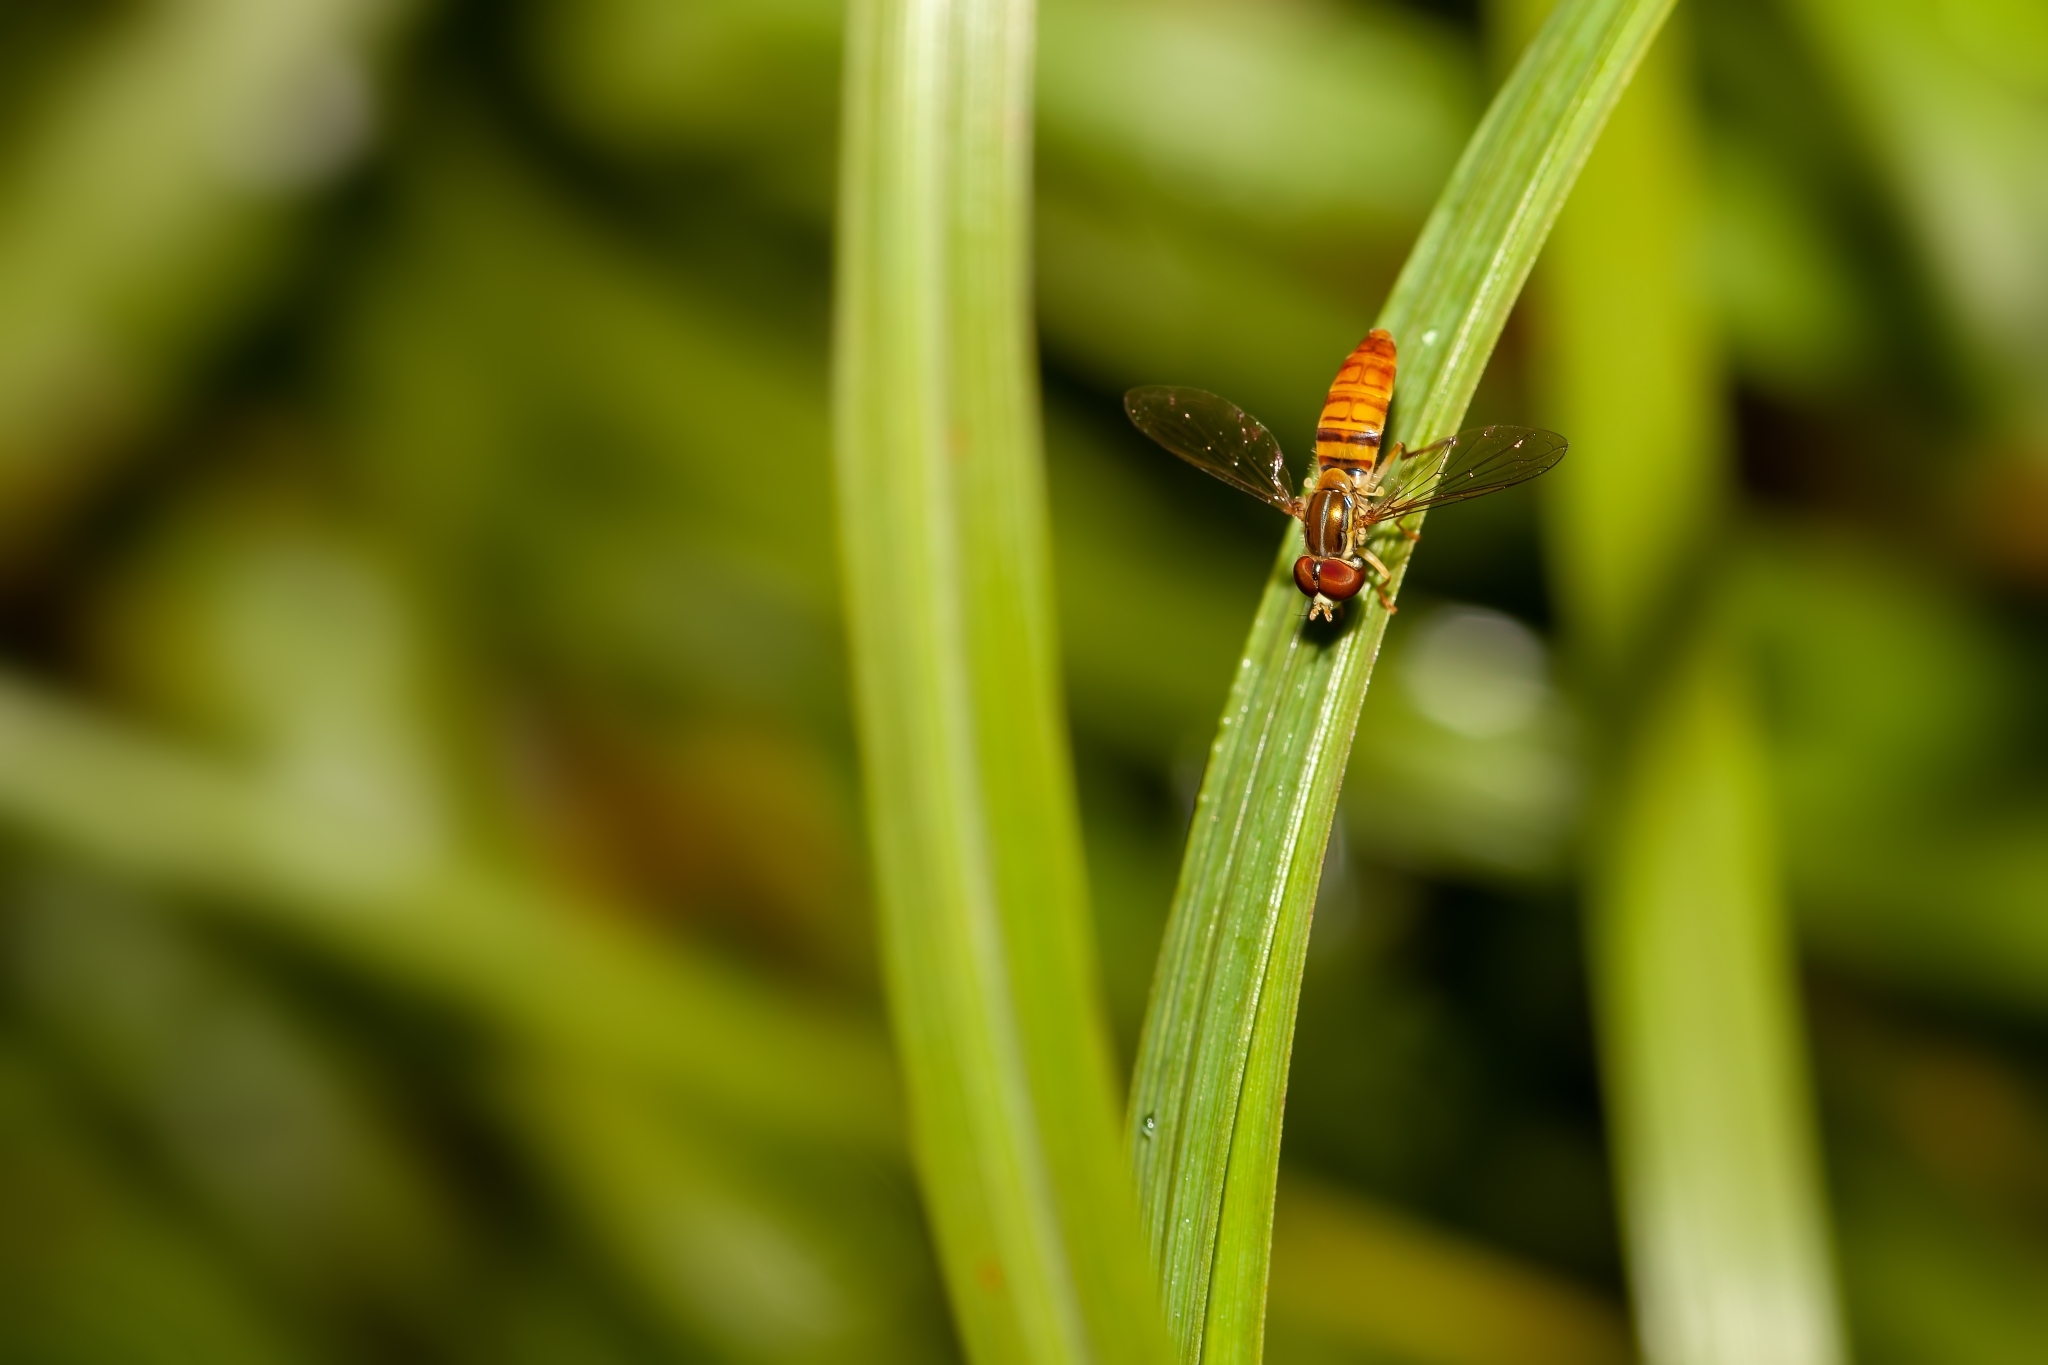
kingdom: Animalia
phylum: Arthropoda
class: Insecta
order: Diptera
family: Syrphidae
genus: Toxomerus
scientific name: Toxomerus politus
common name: Maize calligrapher
